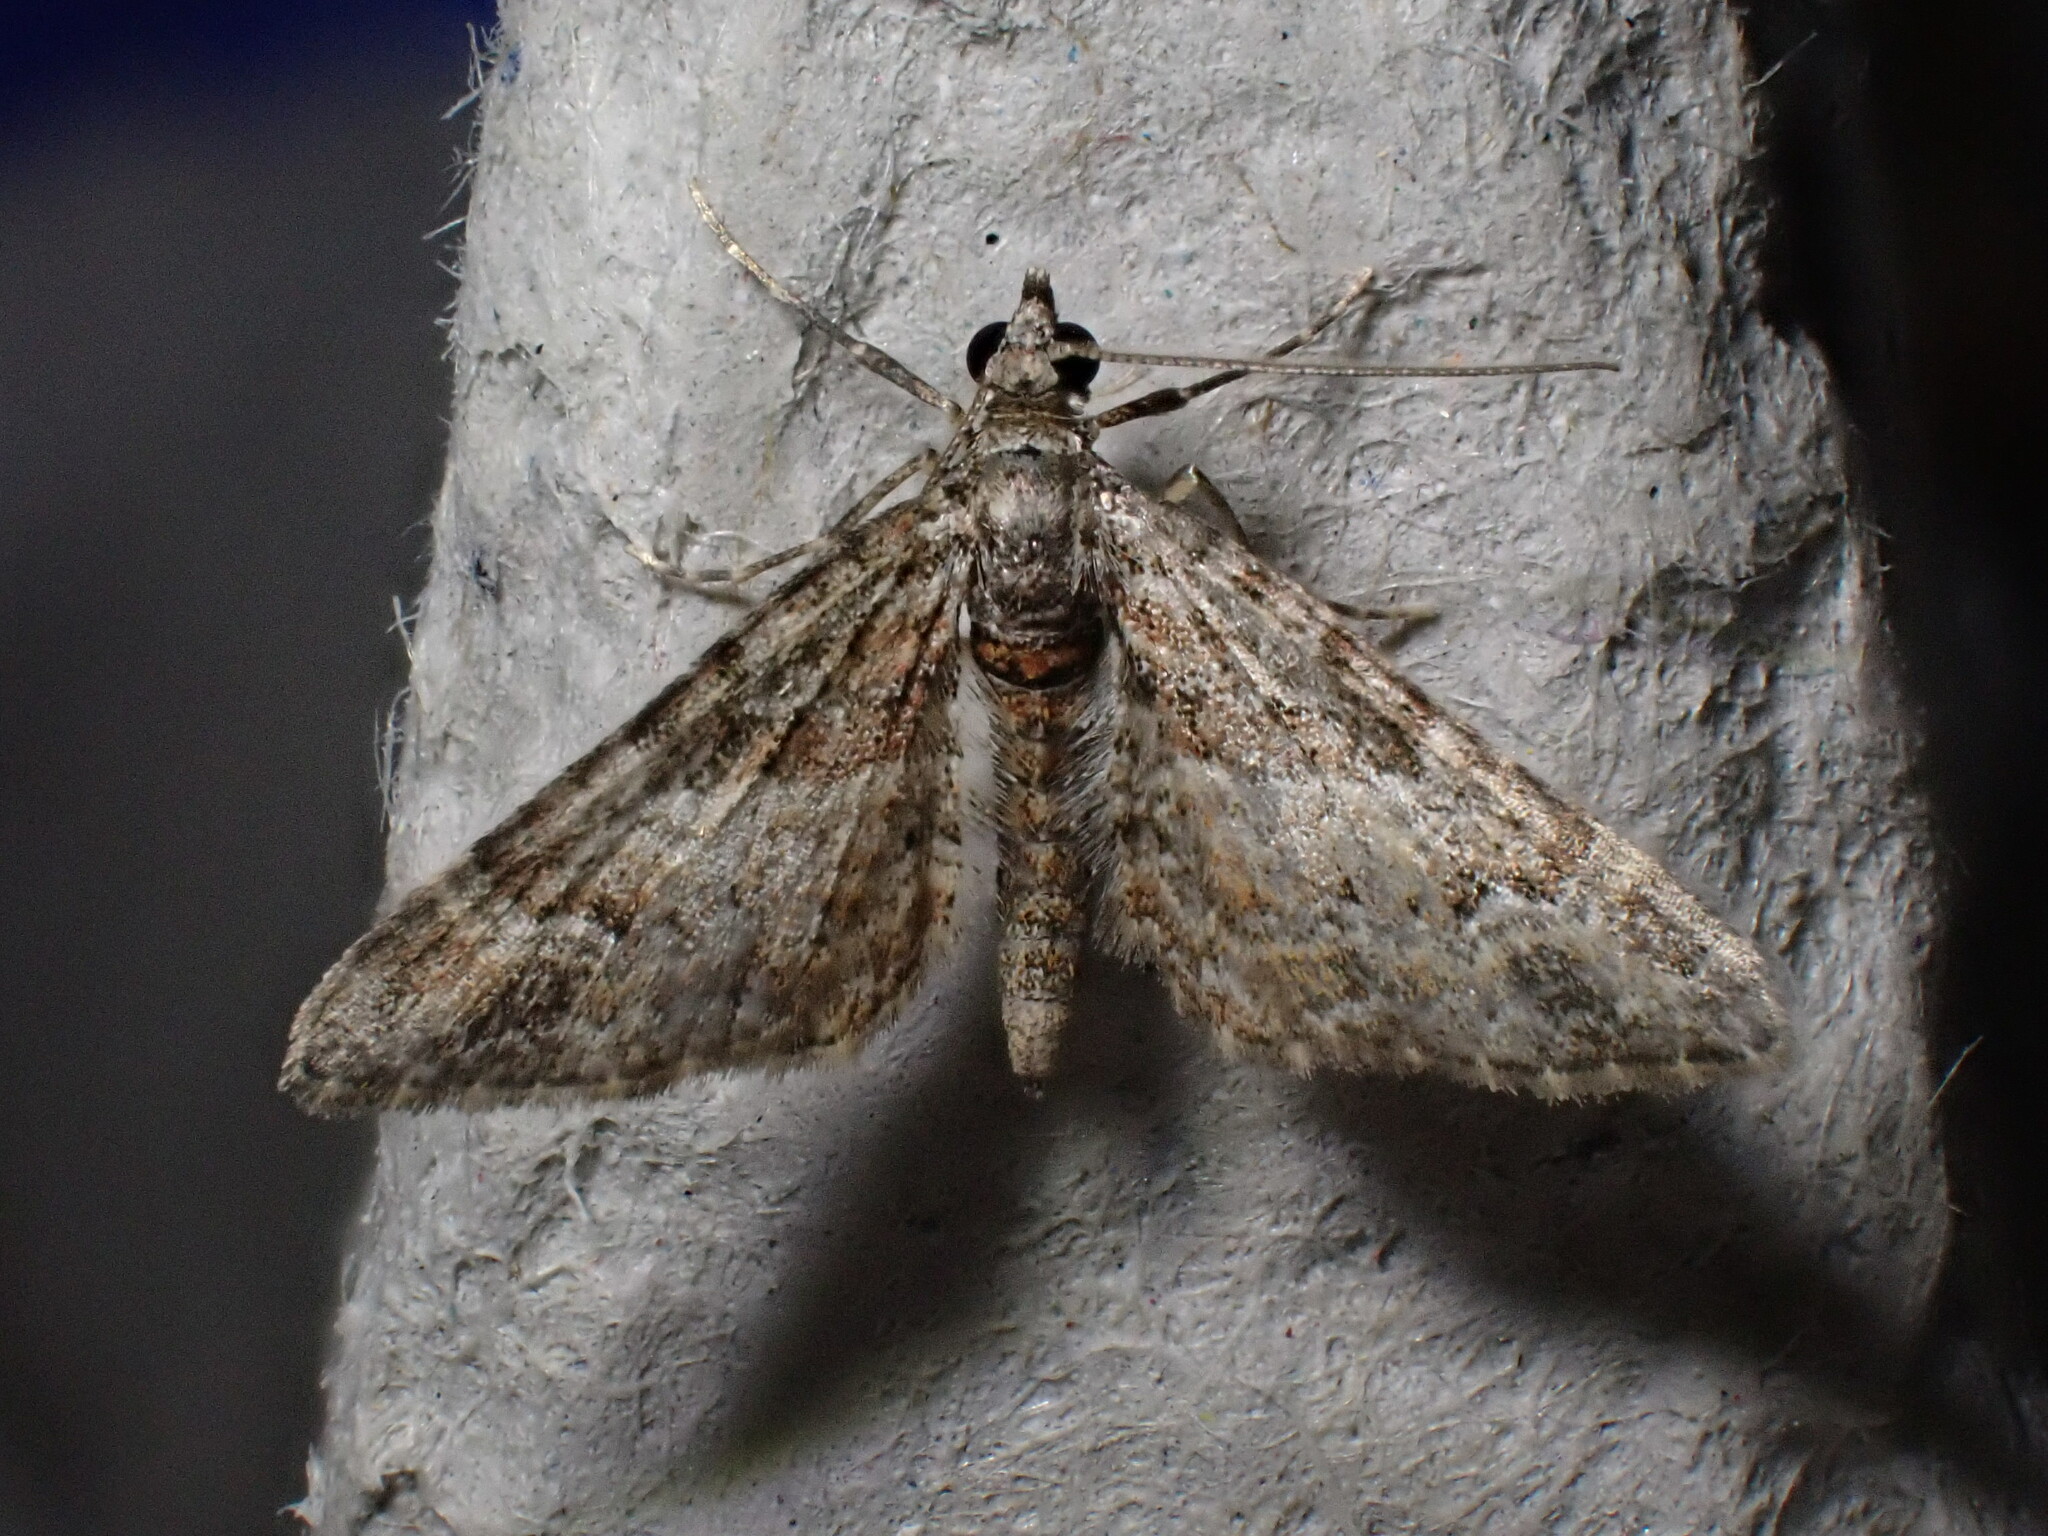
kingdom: Animalia
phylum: Arthropoda
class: Insecta
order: Lepidoptera
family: Geometridae
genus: Gymnoscelis
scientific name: Gymnoscelis rufifasciata
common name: Double-striped pug
